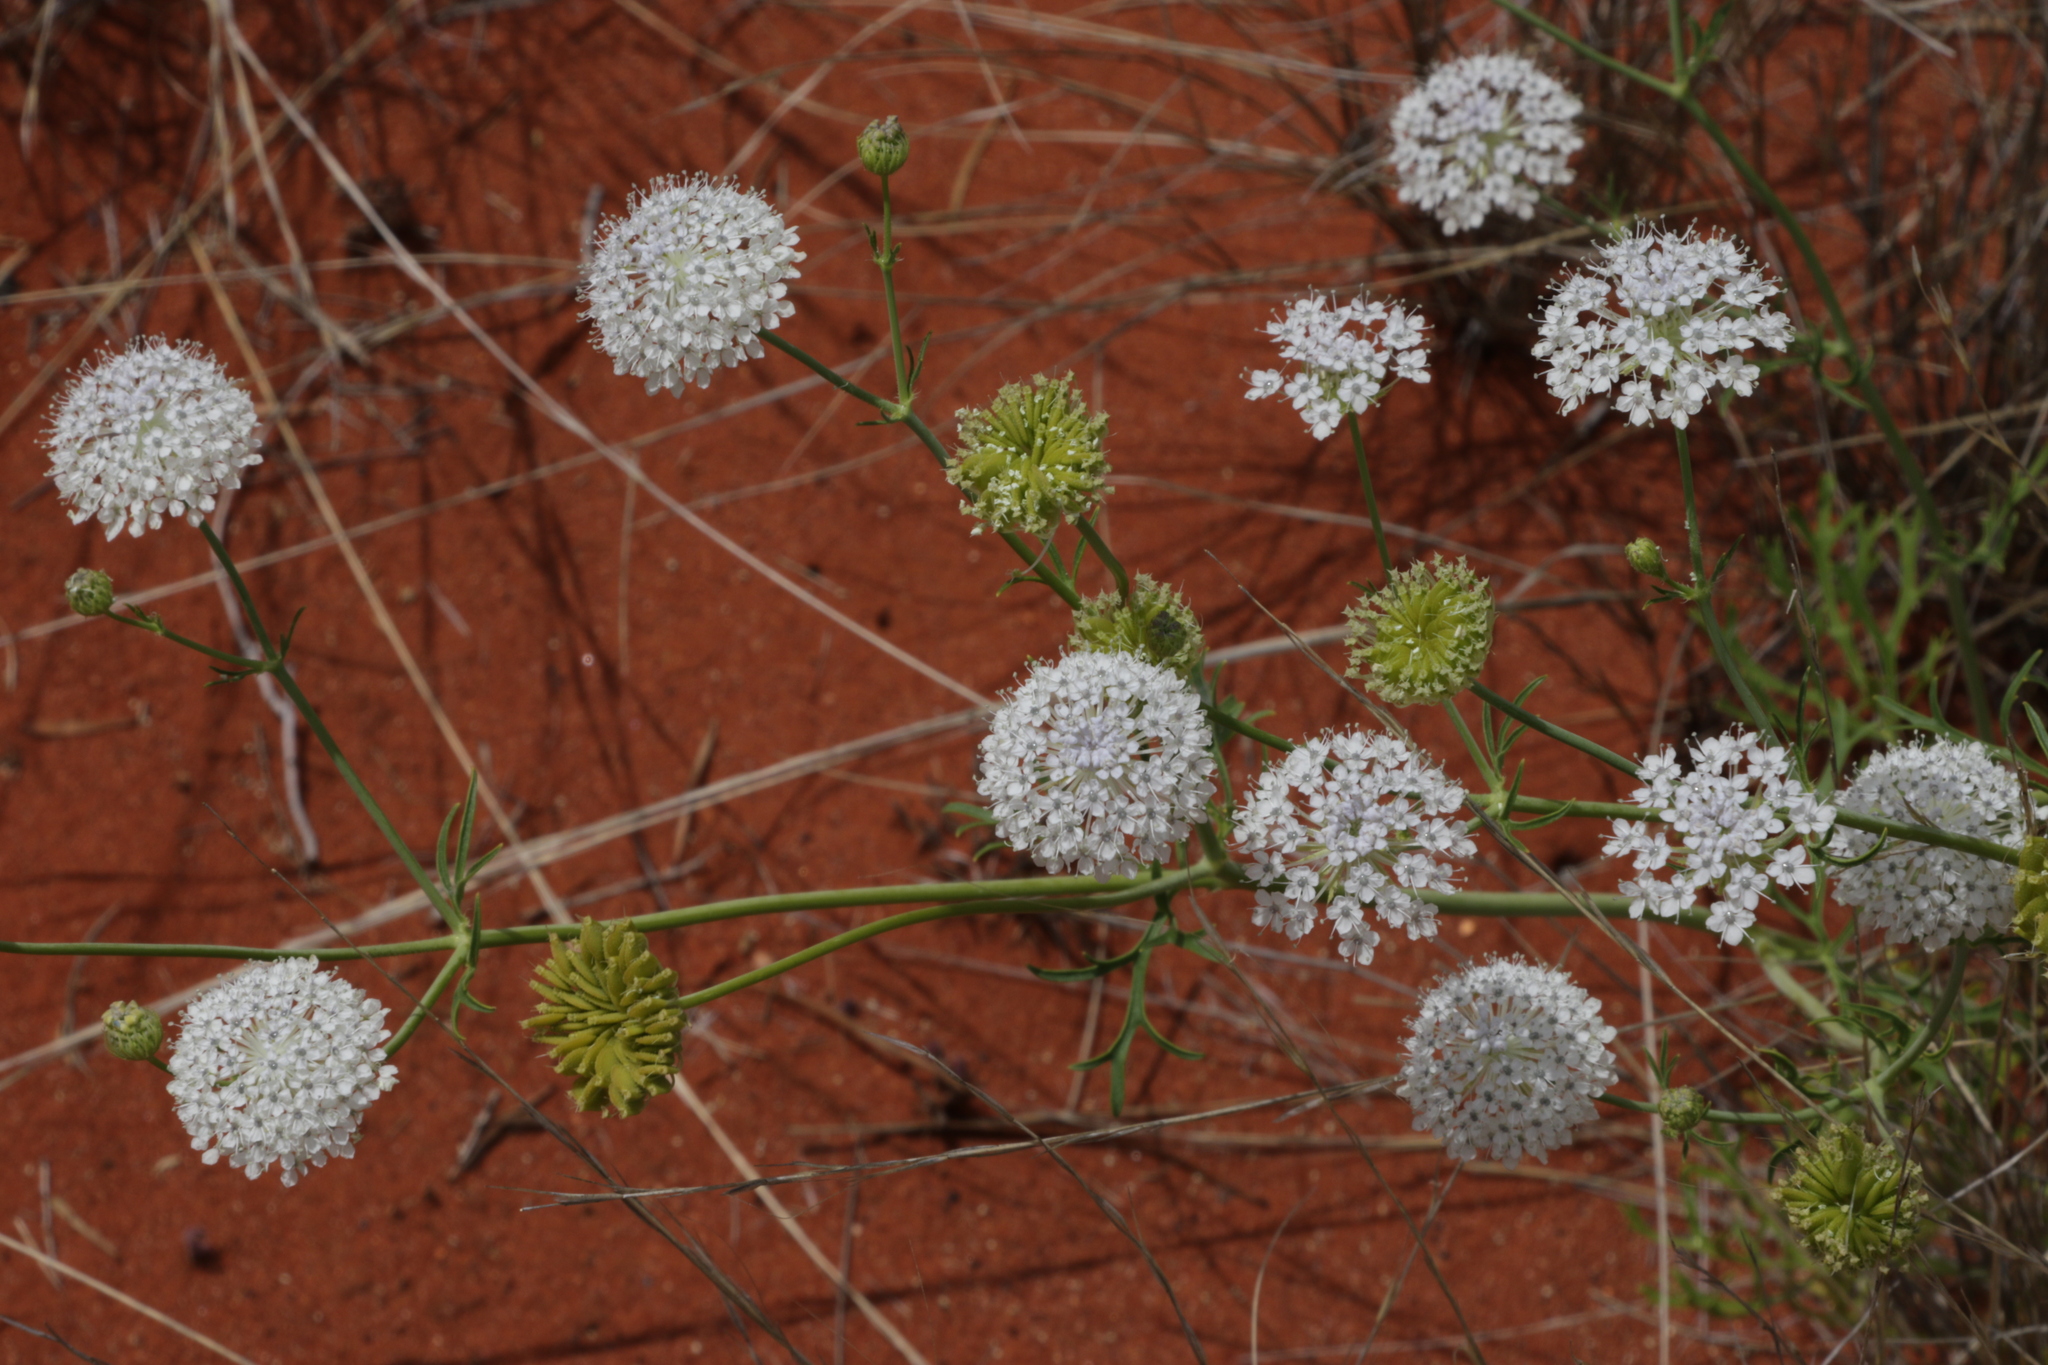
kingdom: Plantae
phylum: Tracheophyta
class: Magnoliopsida
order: Apiales
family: Araliaceae
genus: Trachymene
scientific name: Trachymene glaucifolia
